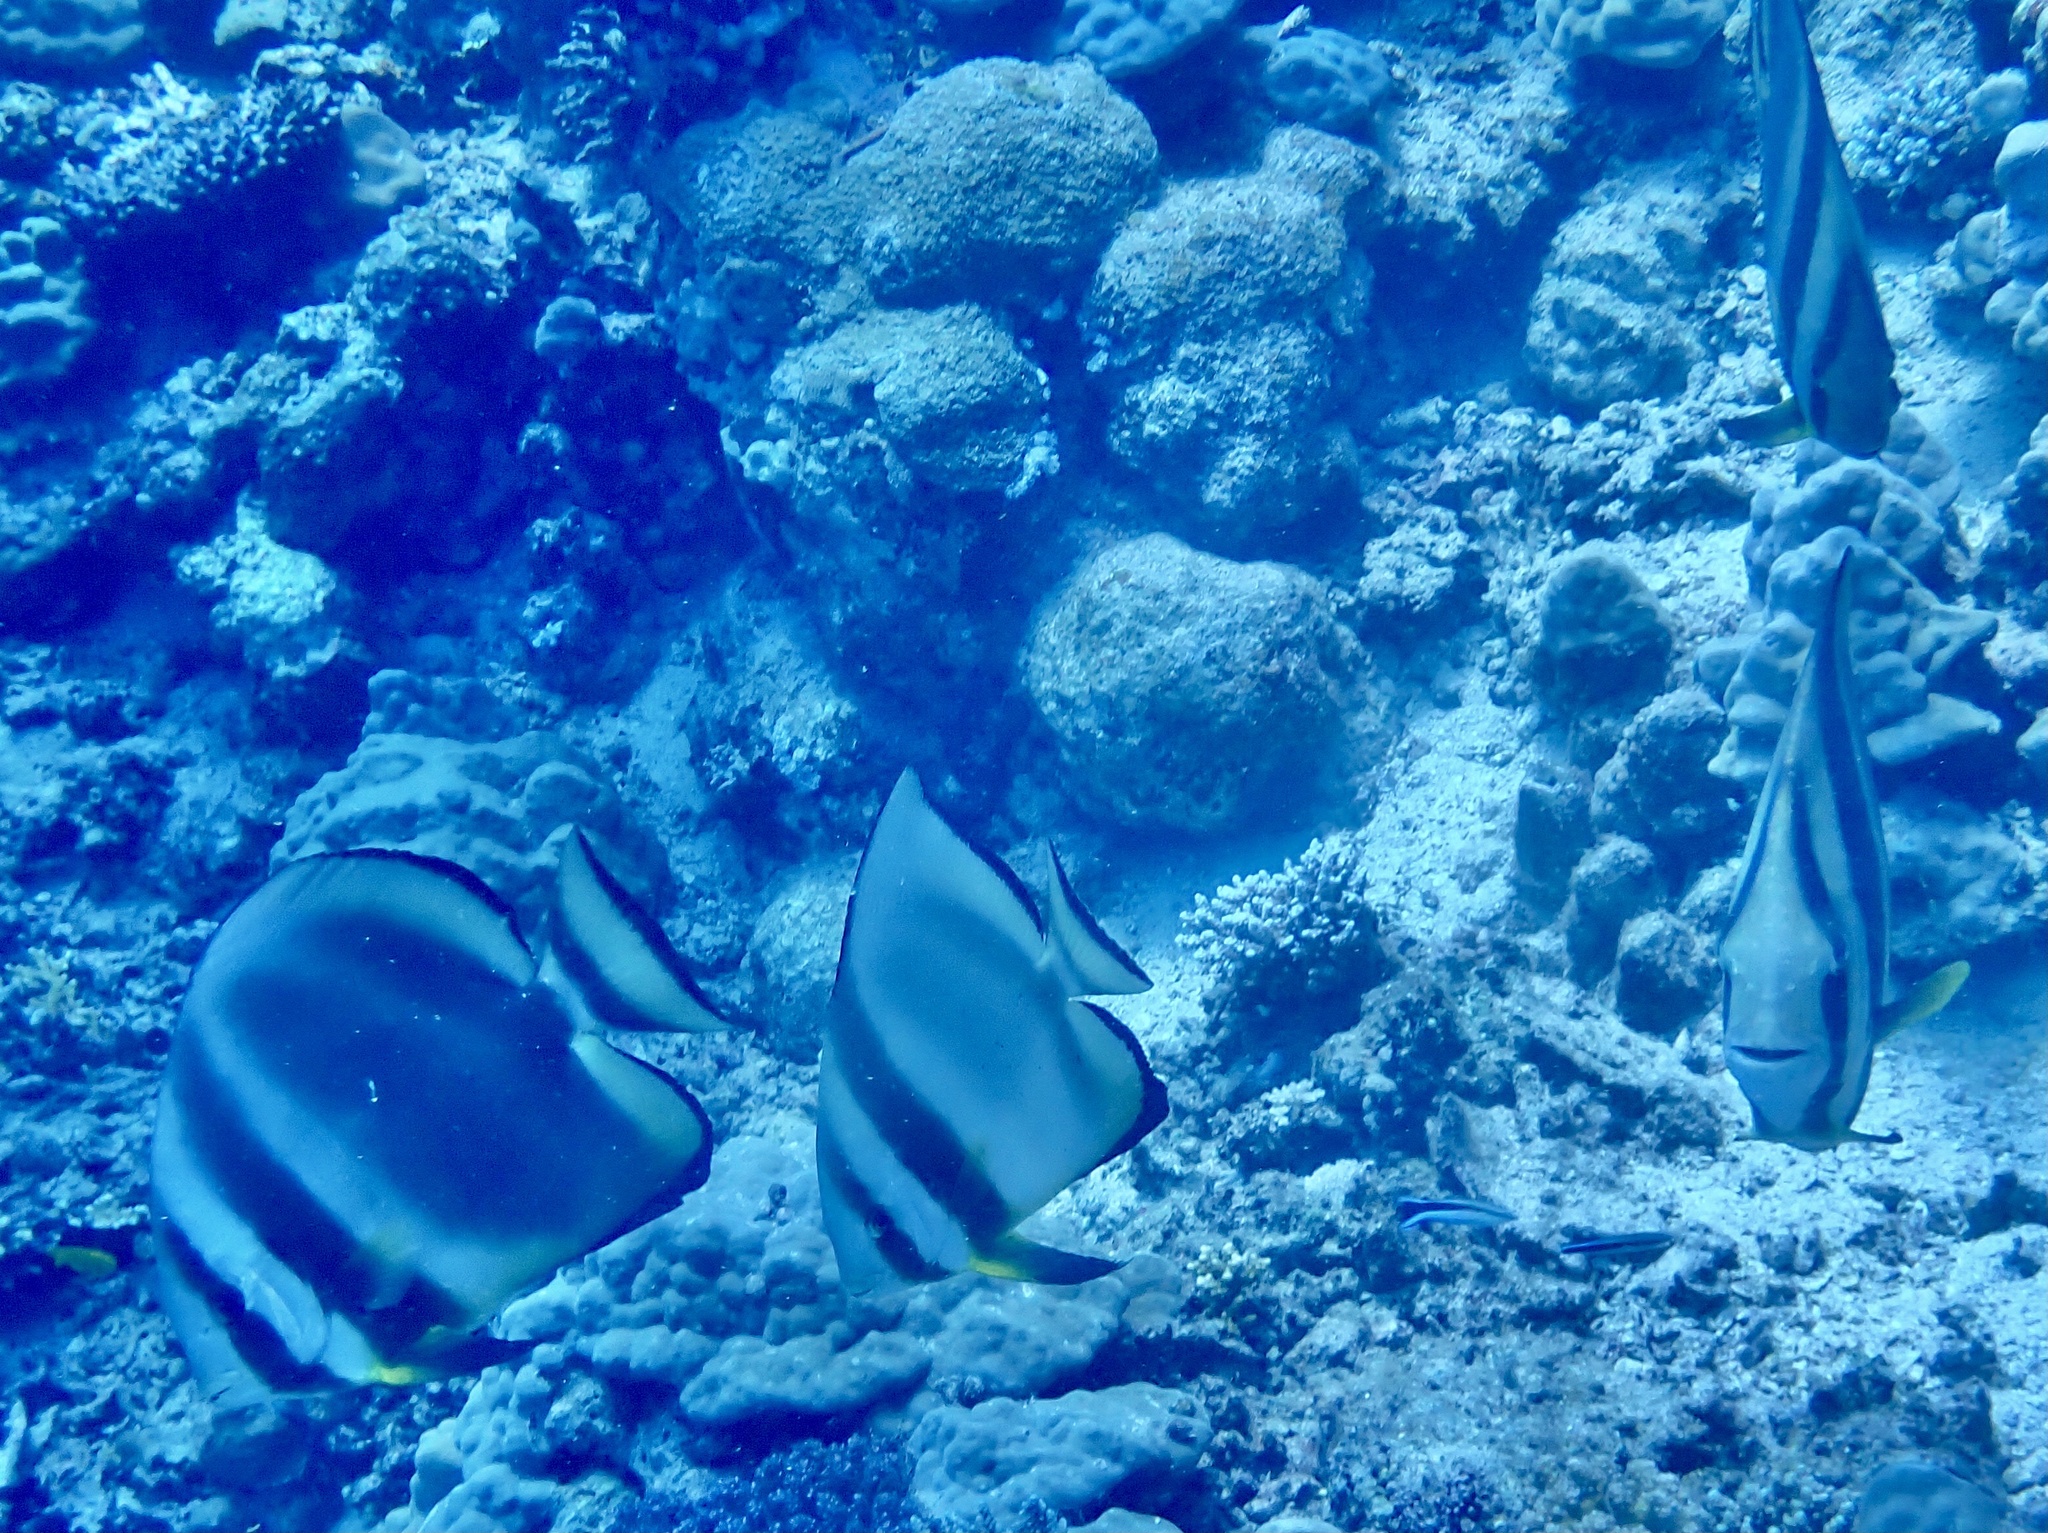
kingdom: Animalia
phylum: Chordata
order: Perciformes
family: Ephippidae
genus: Platax
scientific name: Platax orbicularis
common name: Batfish
